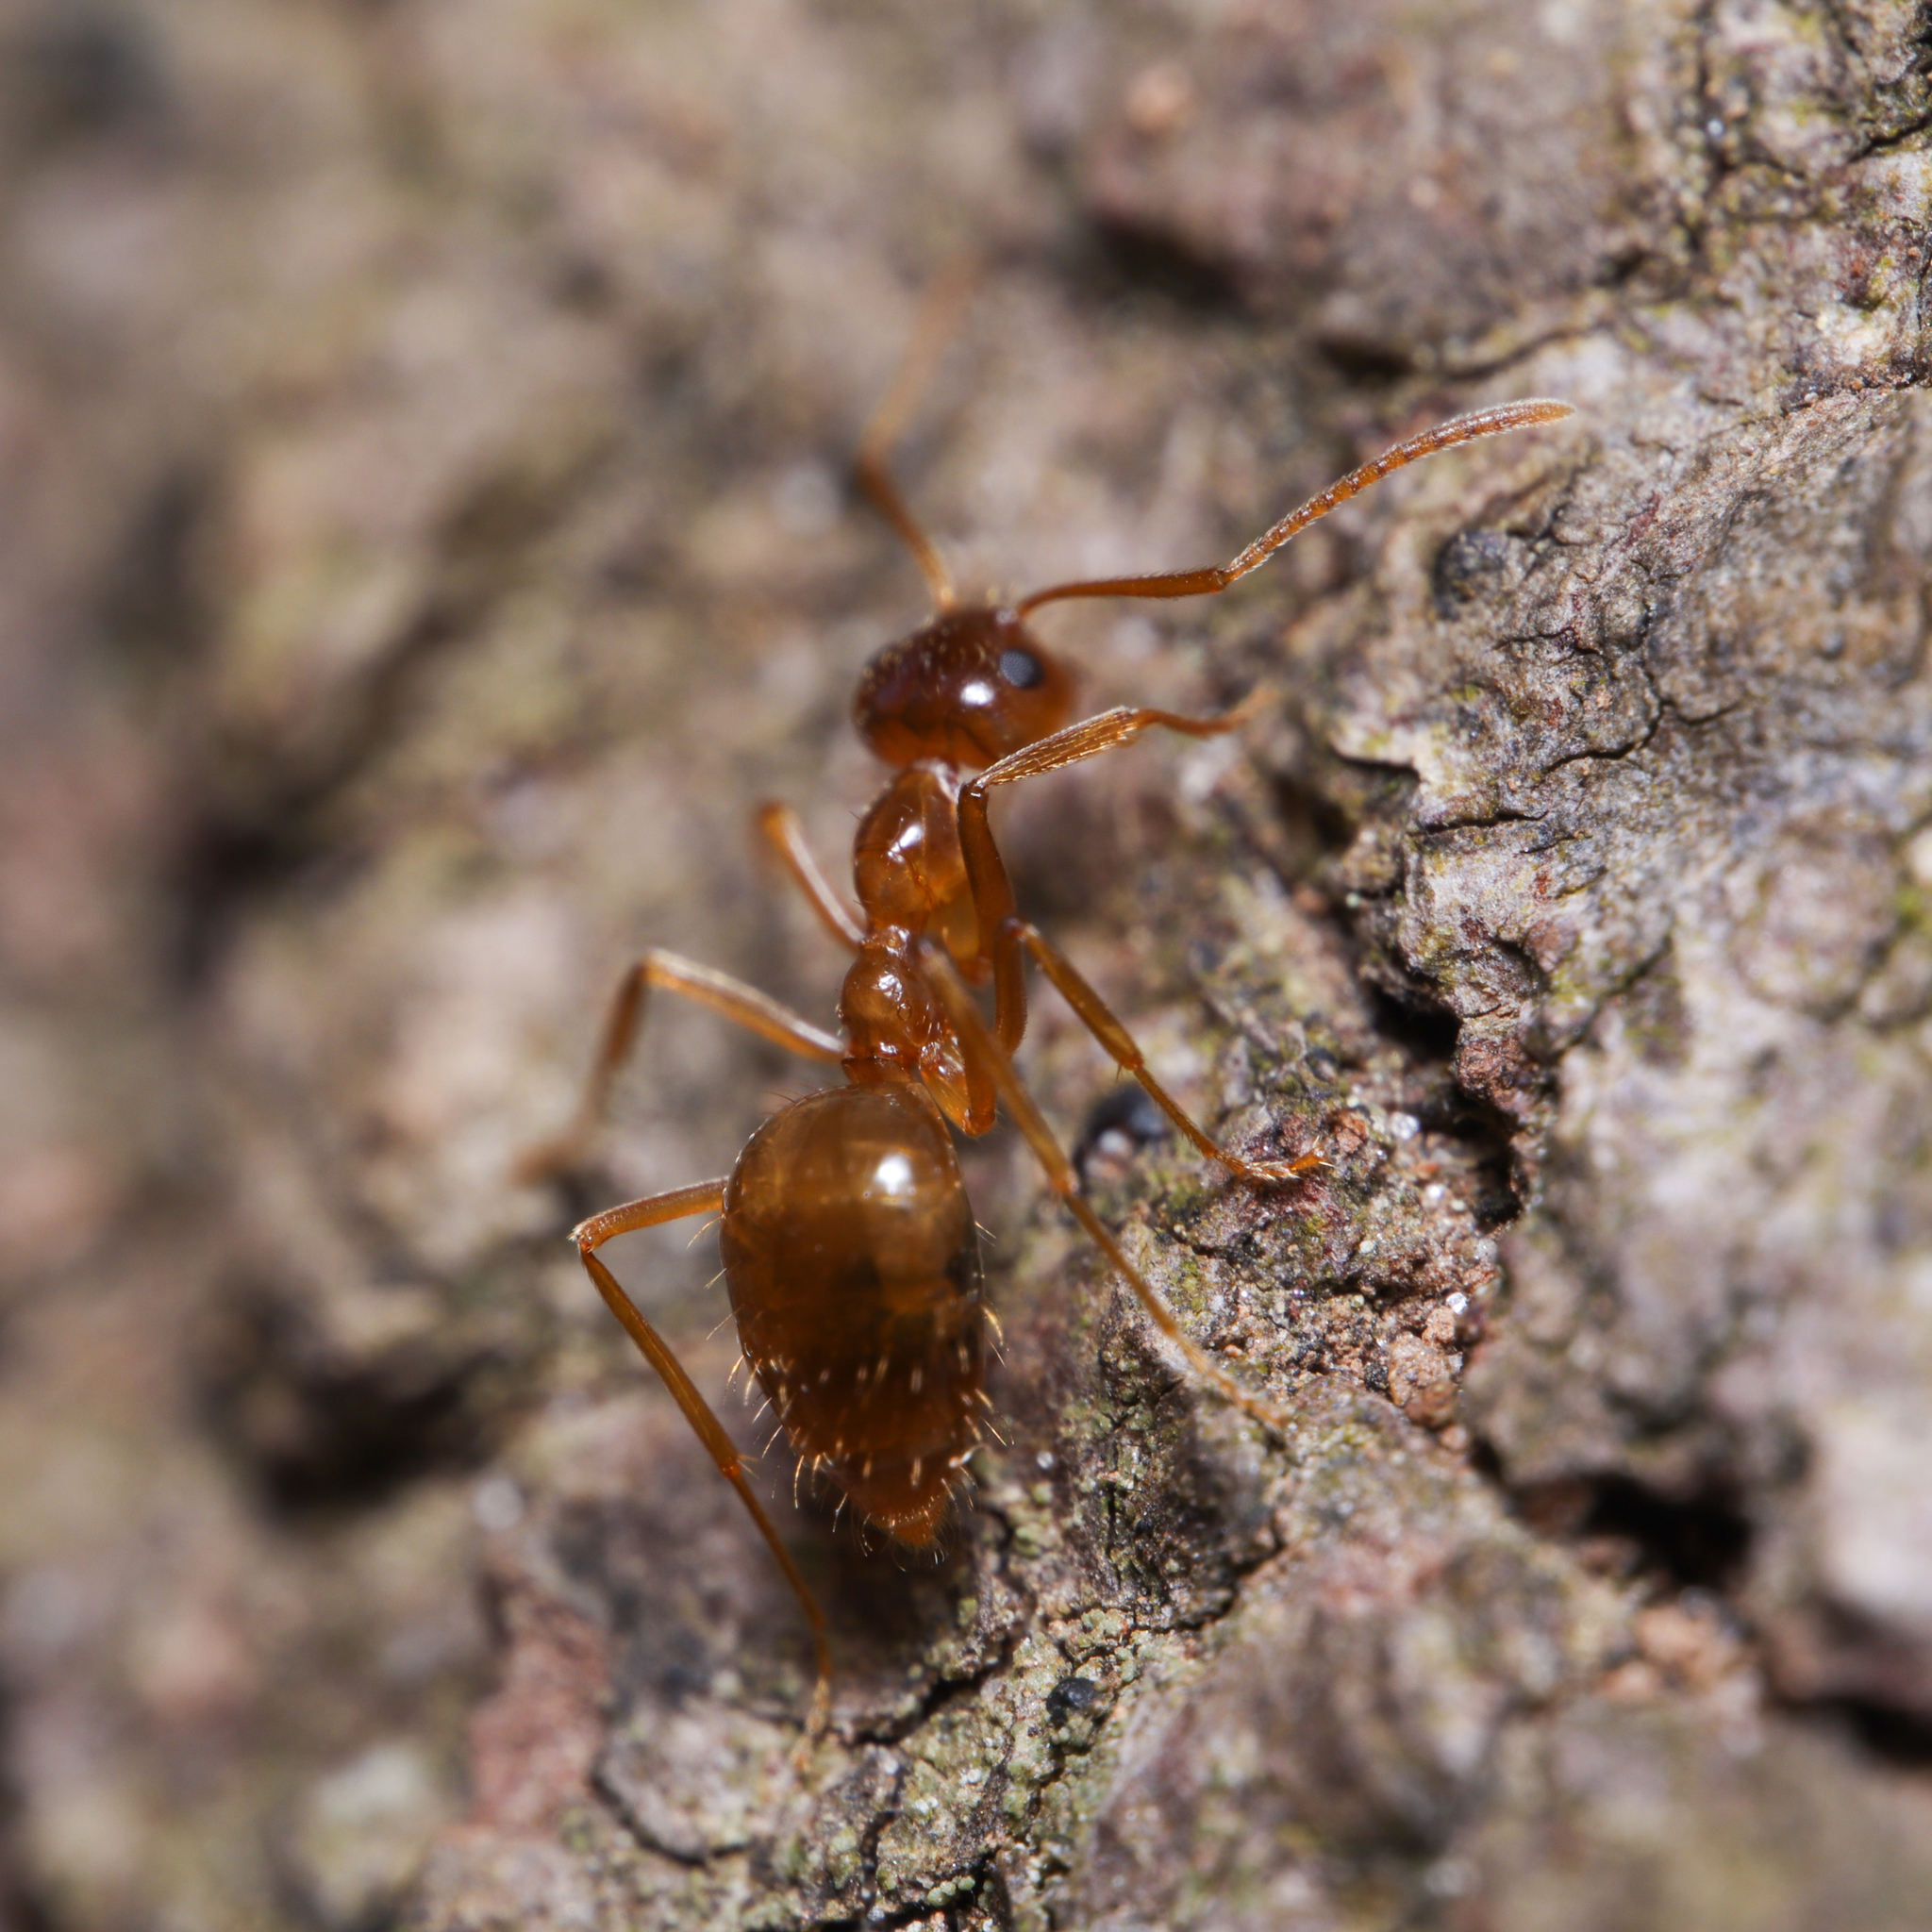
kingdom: Animalia
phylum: Arthropoda
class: Insecta
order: Hymenoptera
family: Formicidae
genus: Prenolepis
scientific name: Prenolepis imparis
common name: Small honey ant
